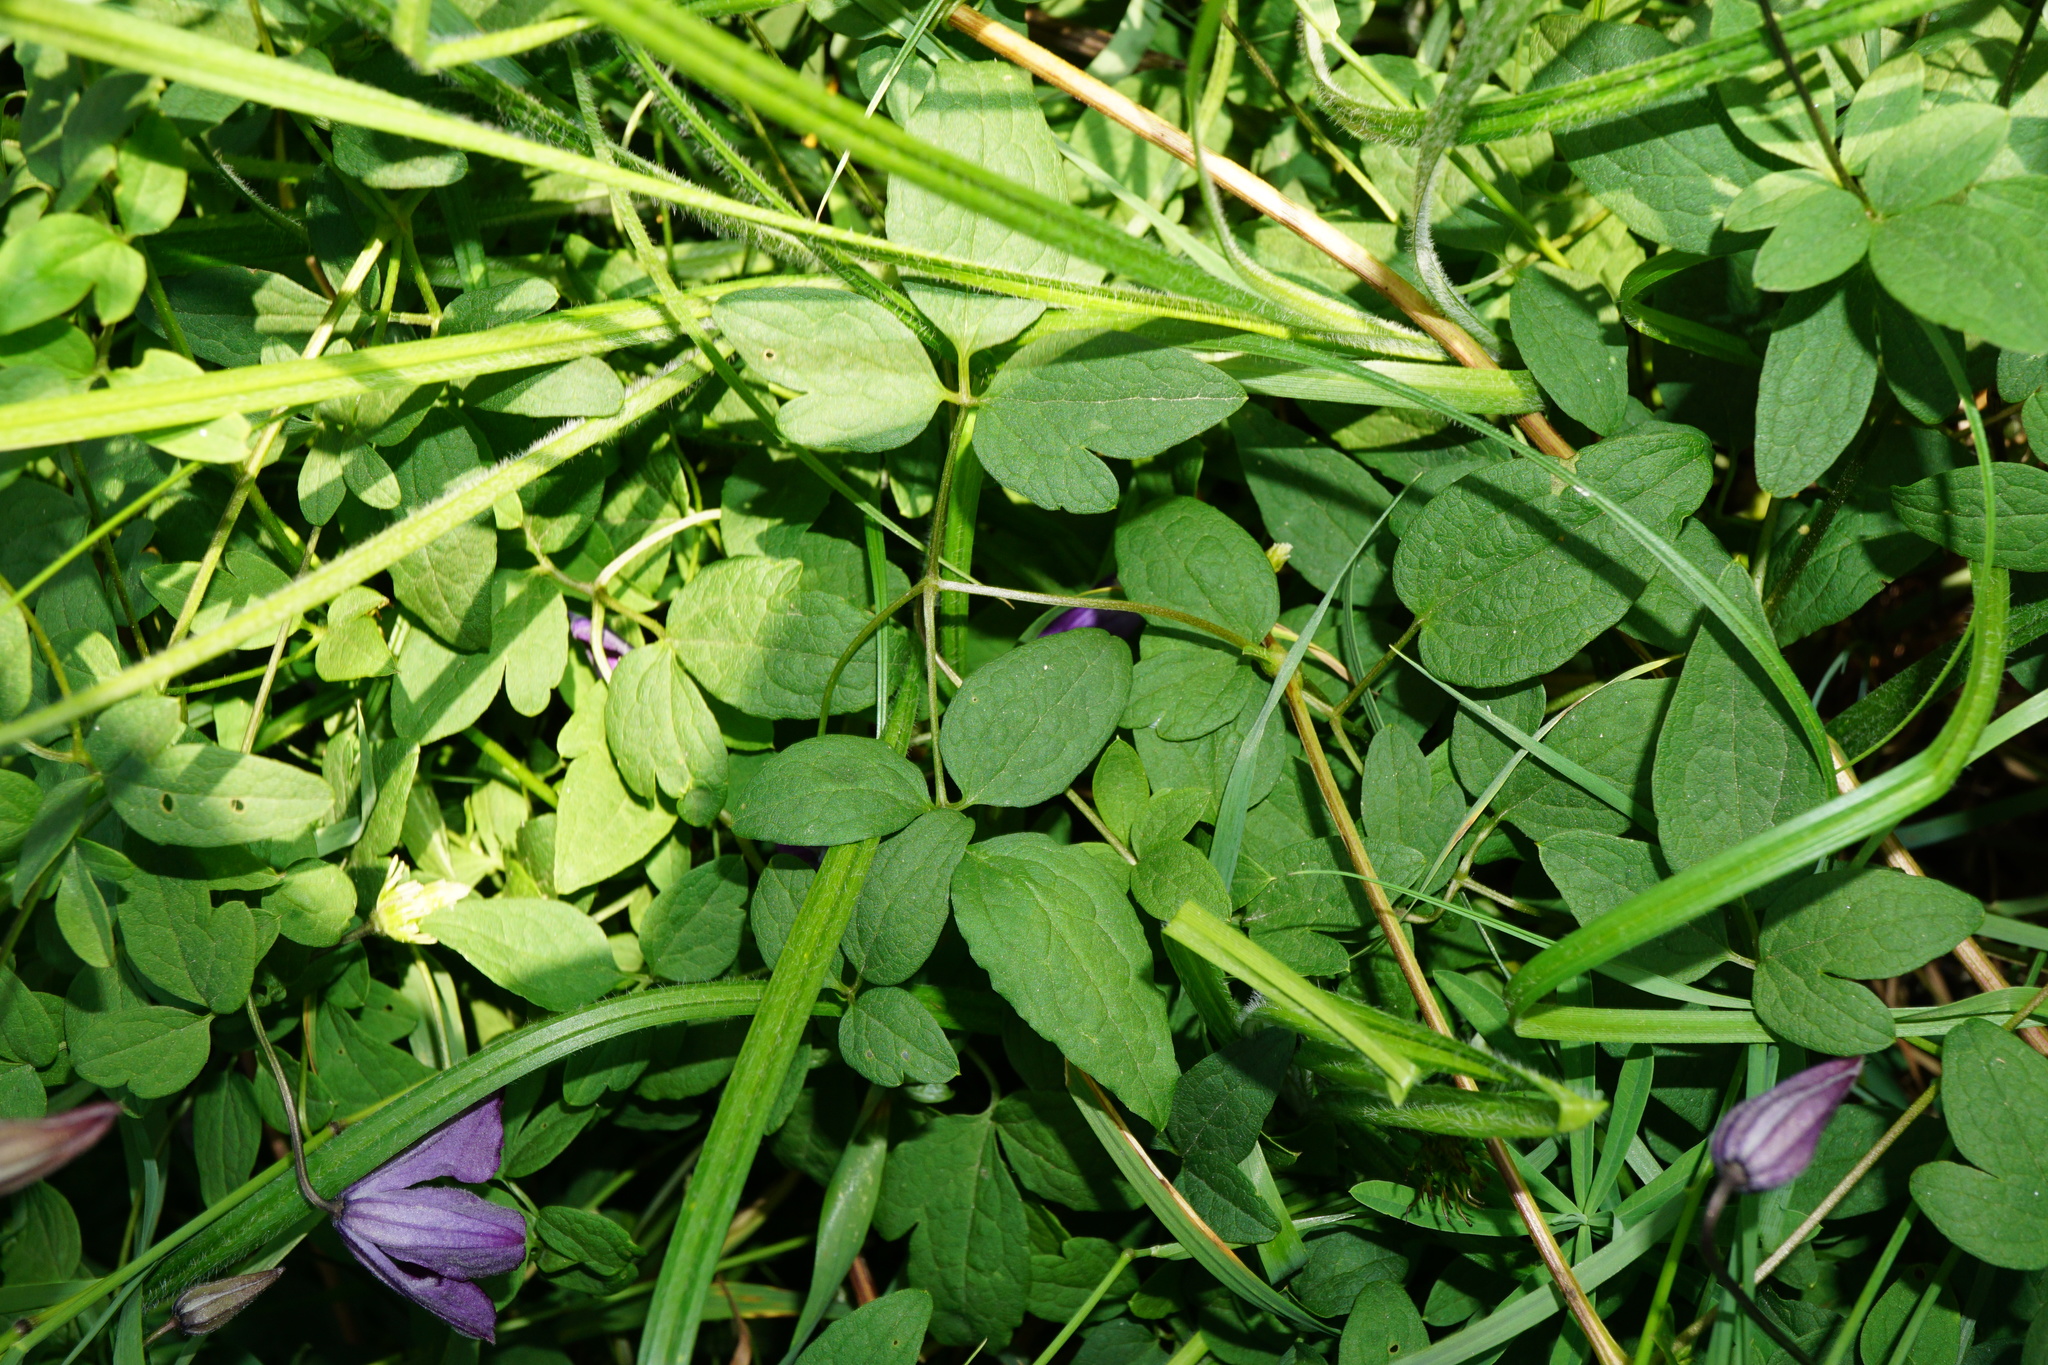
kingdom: Plantae
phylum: Tracheophyta
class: Magnoliopsida
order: Ranunculales
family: Ranunculaceae
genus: Clematis
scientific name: Clematis viticella
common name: Purple clematis
